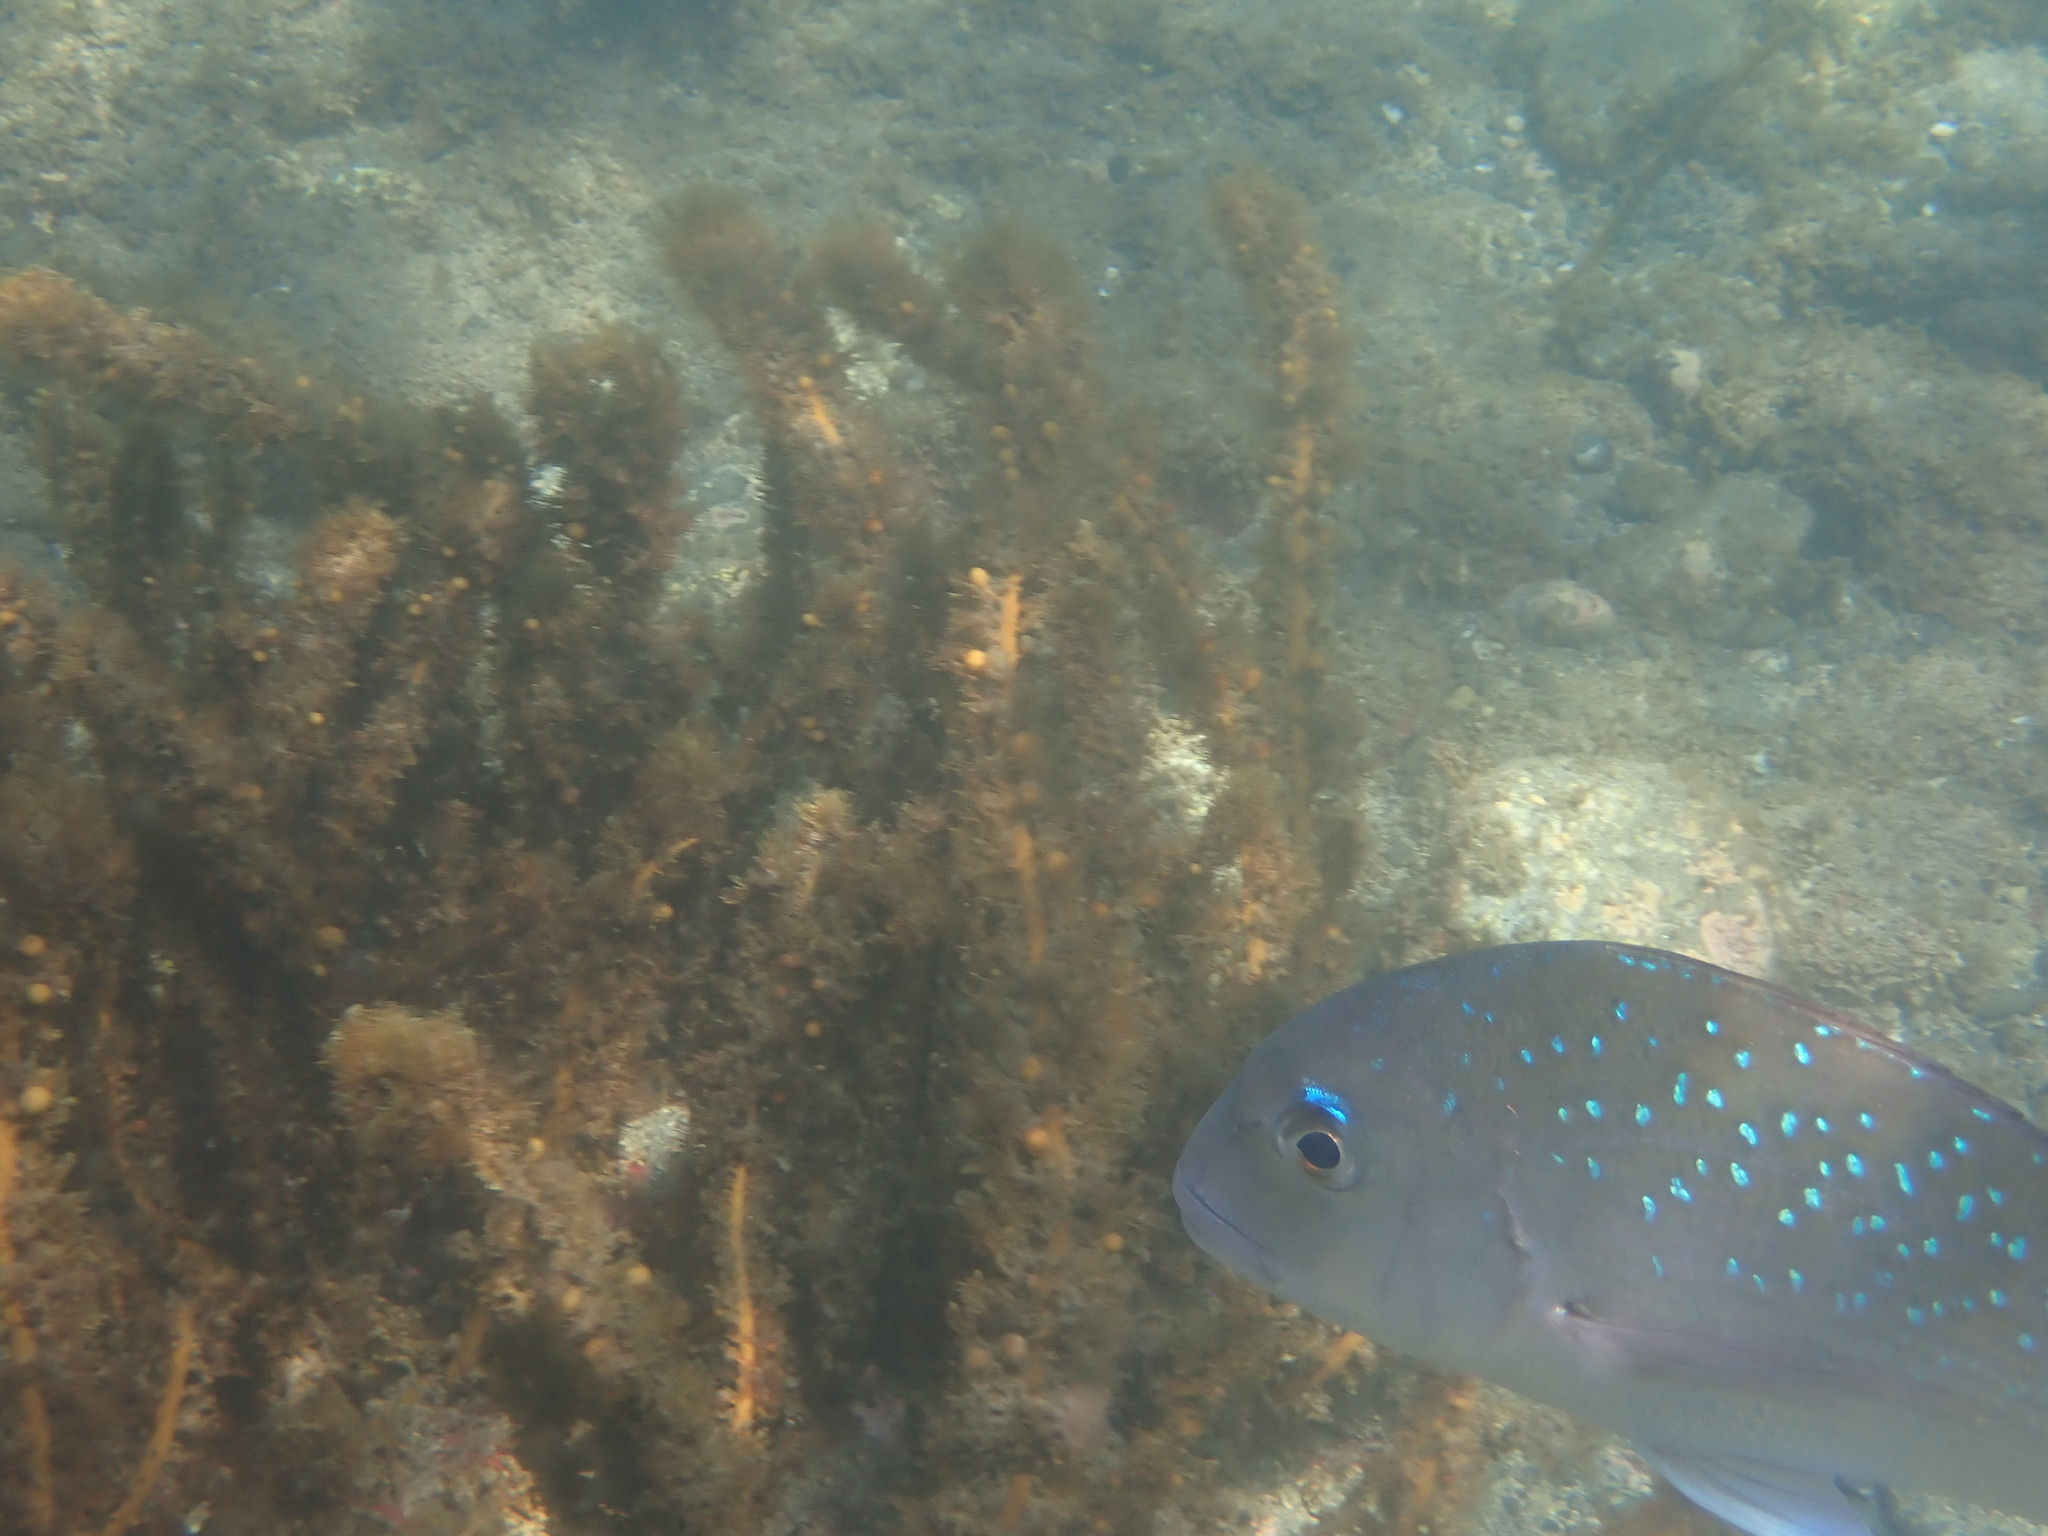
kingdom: Animalia
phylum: Chordata
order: Perciformes
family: Sparidae
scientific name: Sparidae
